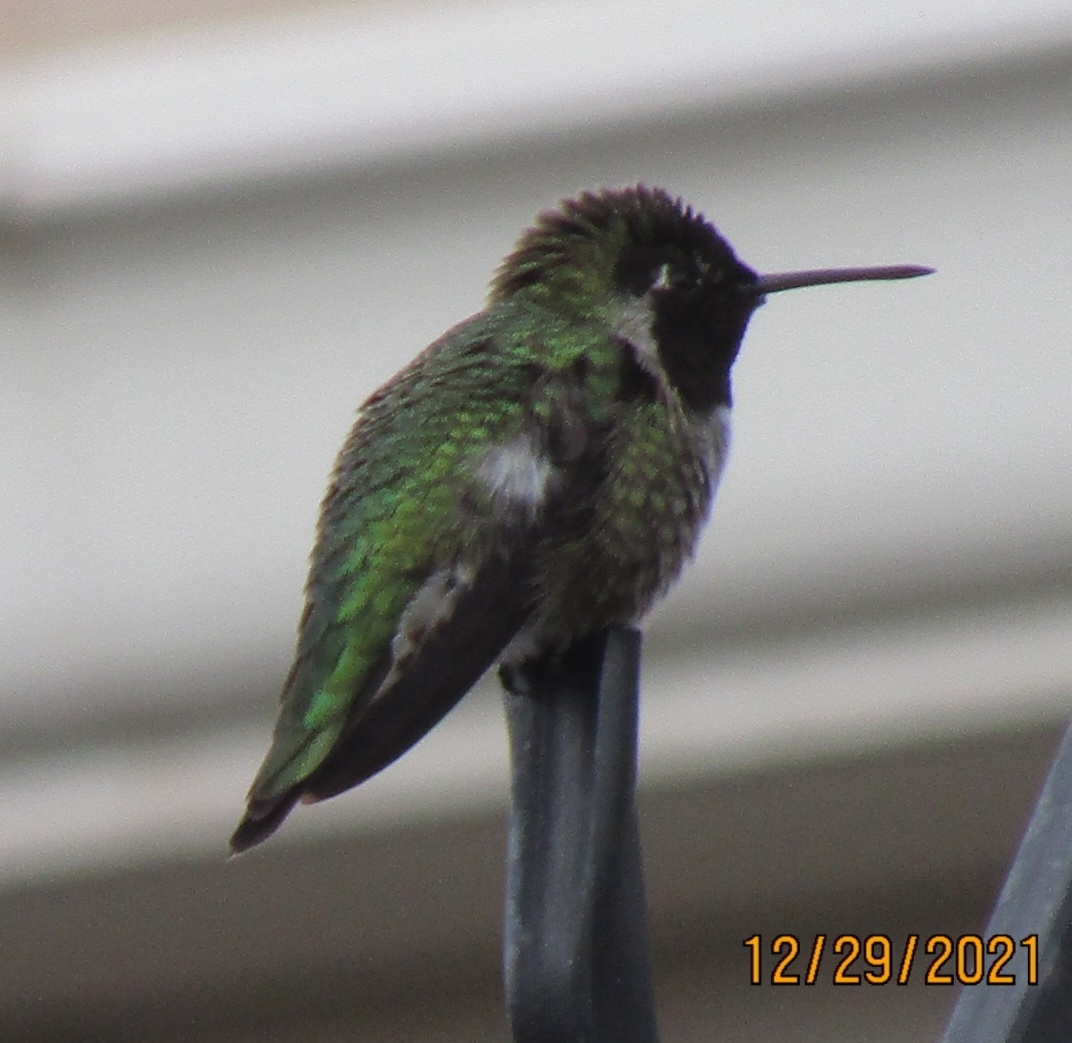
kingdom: Animalia
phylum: Chordata
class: Aves
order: Apodiformes
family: Trochilidae
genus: Calypte
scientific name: Calypte anna
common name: Anna's hummingbird
